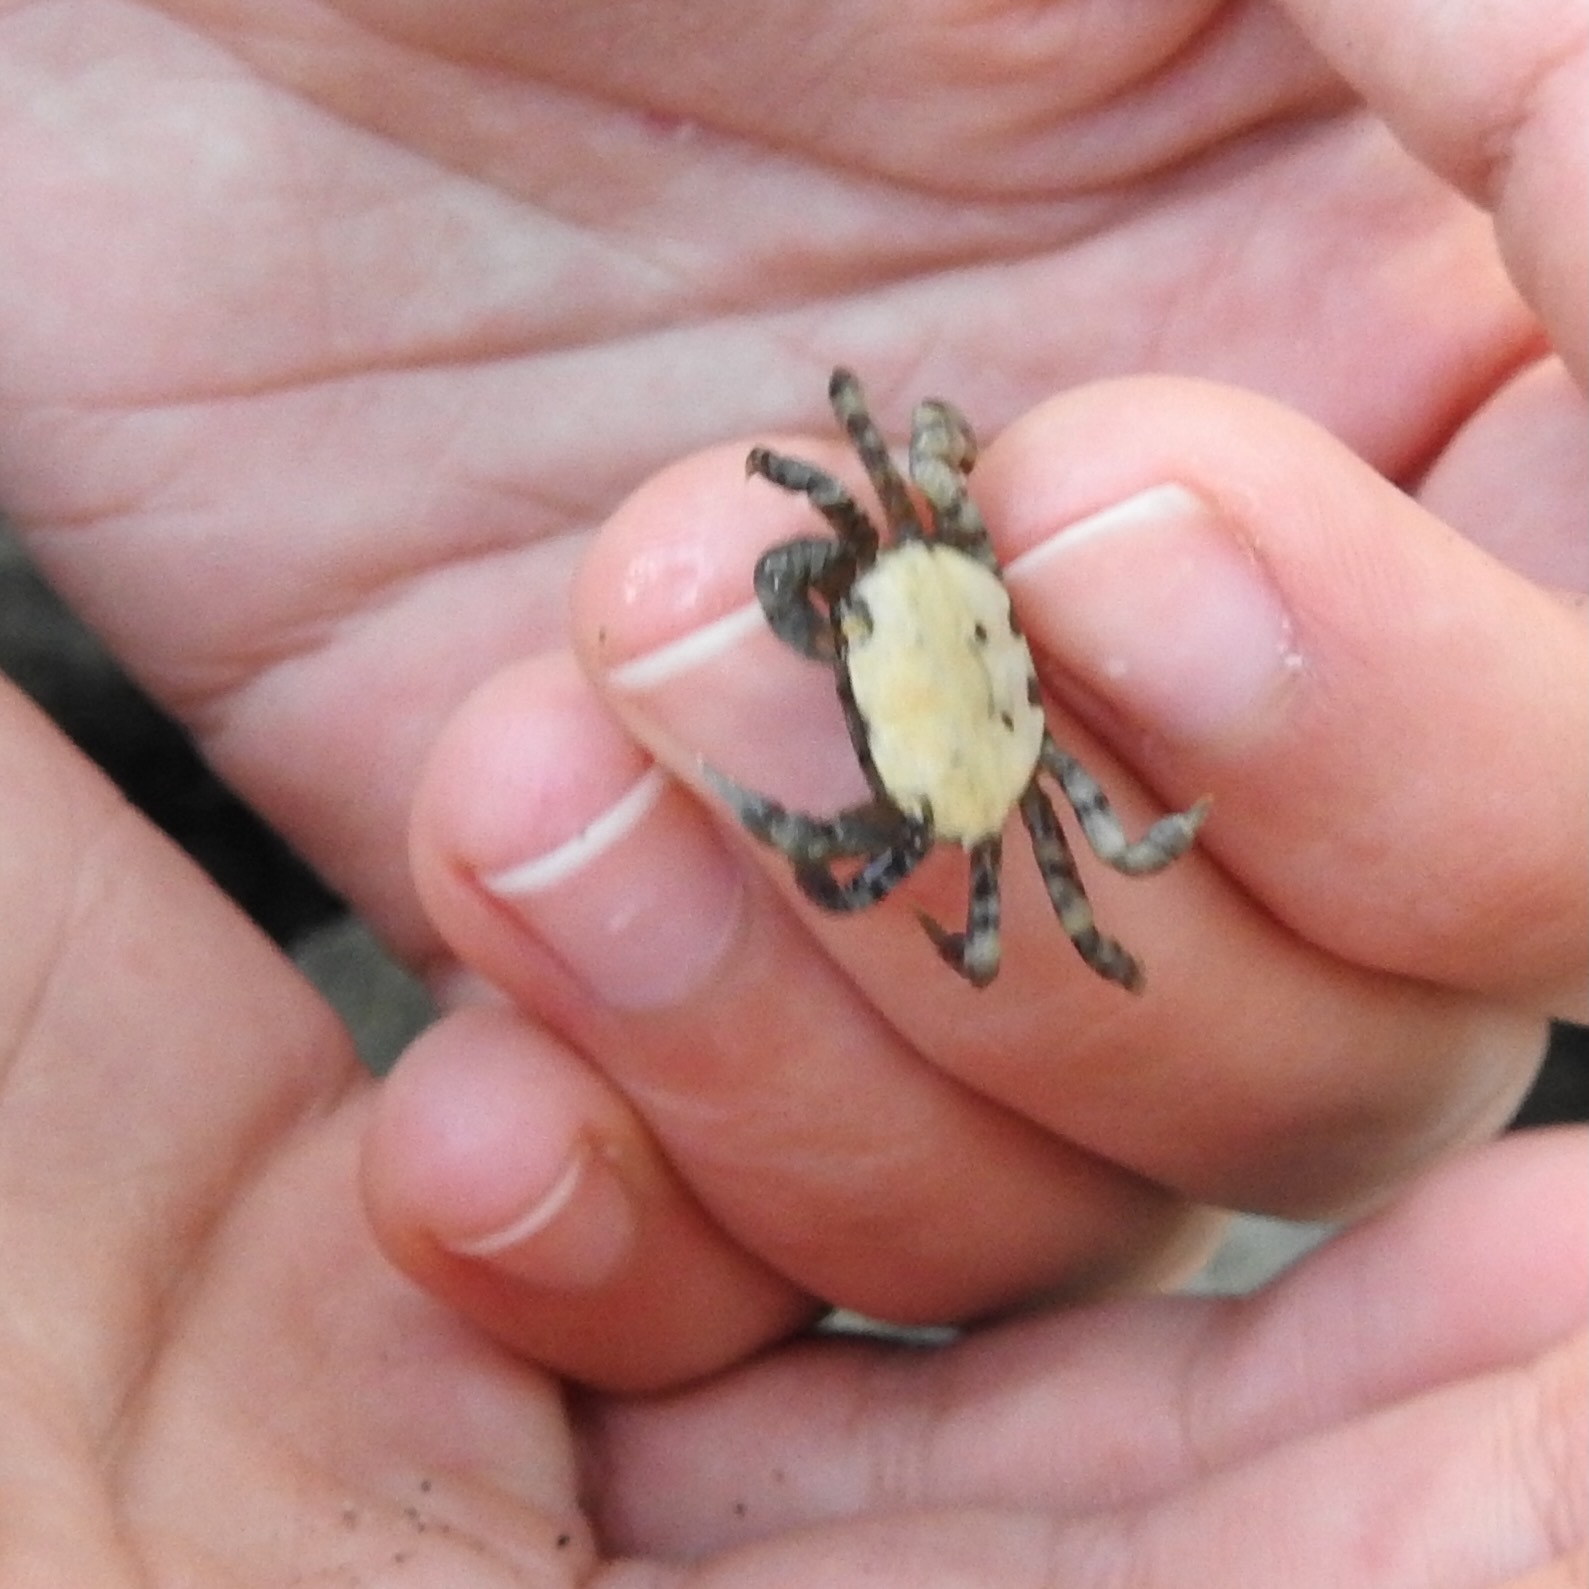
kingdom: Animalia
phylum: Arthropoda
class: Malacostraca
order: Decapoda
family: Varunidae
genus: Hemigrapsus
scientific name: Hemigrapsus oregonensis
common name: Yellow shore crab
